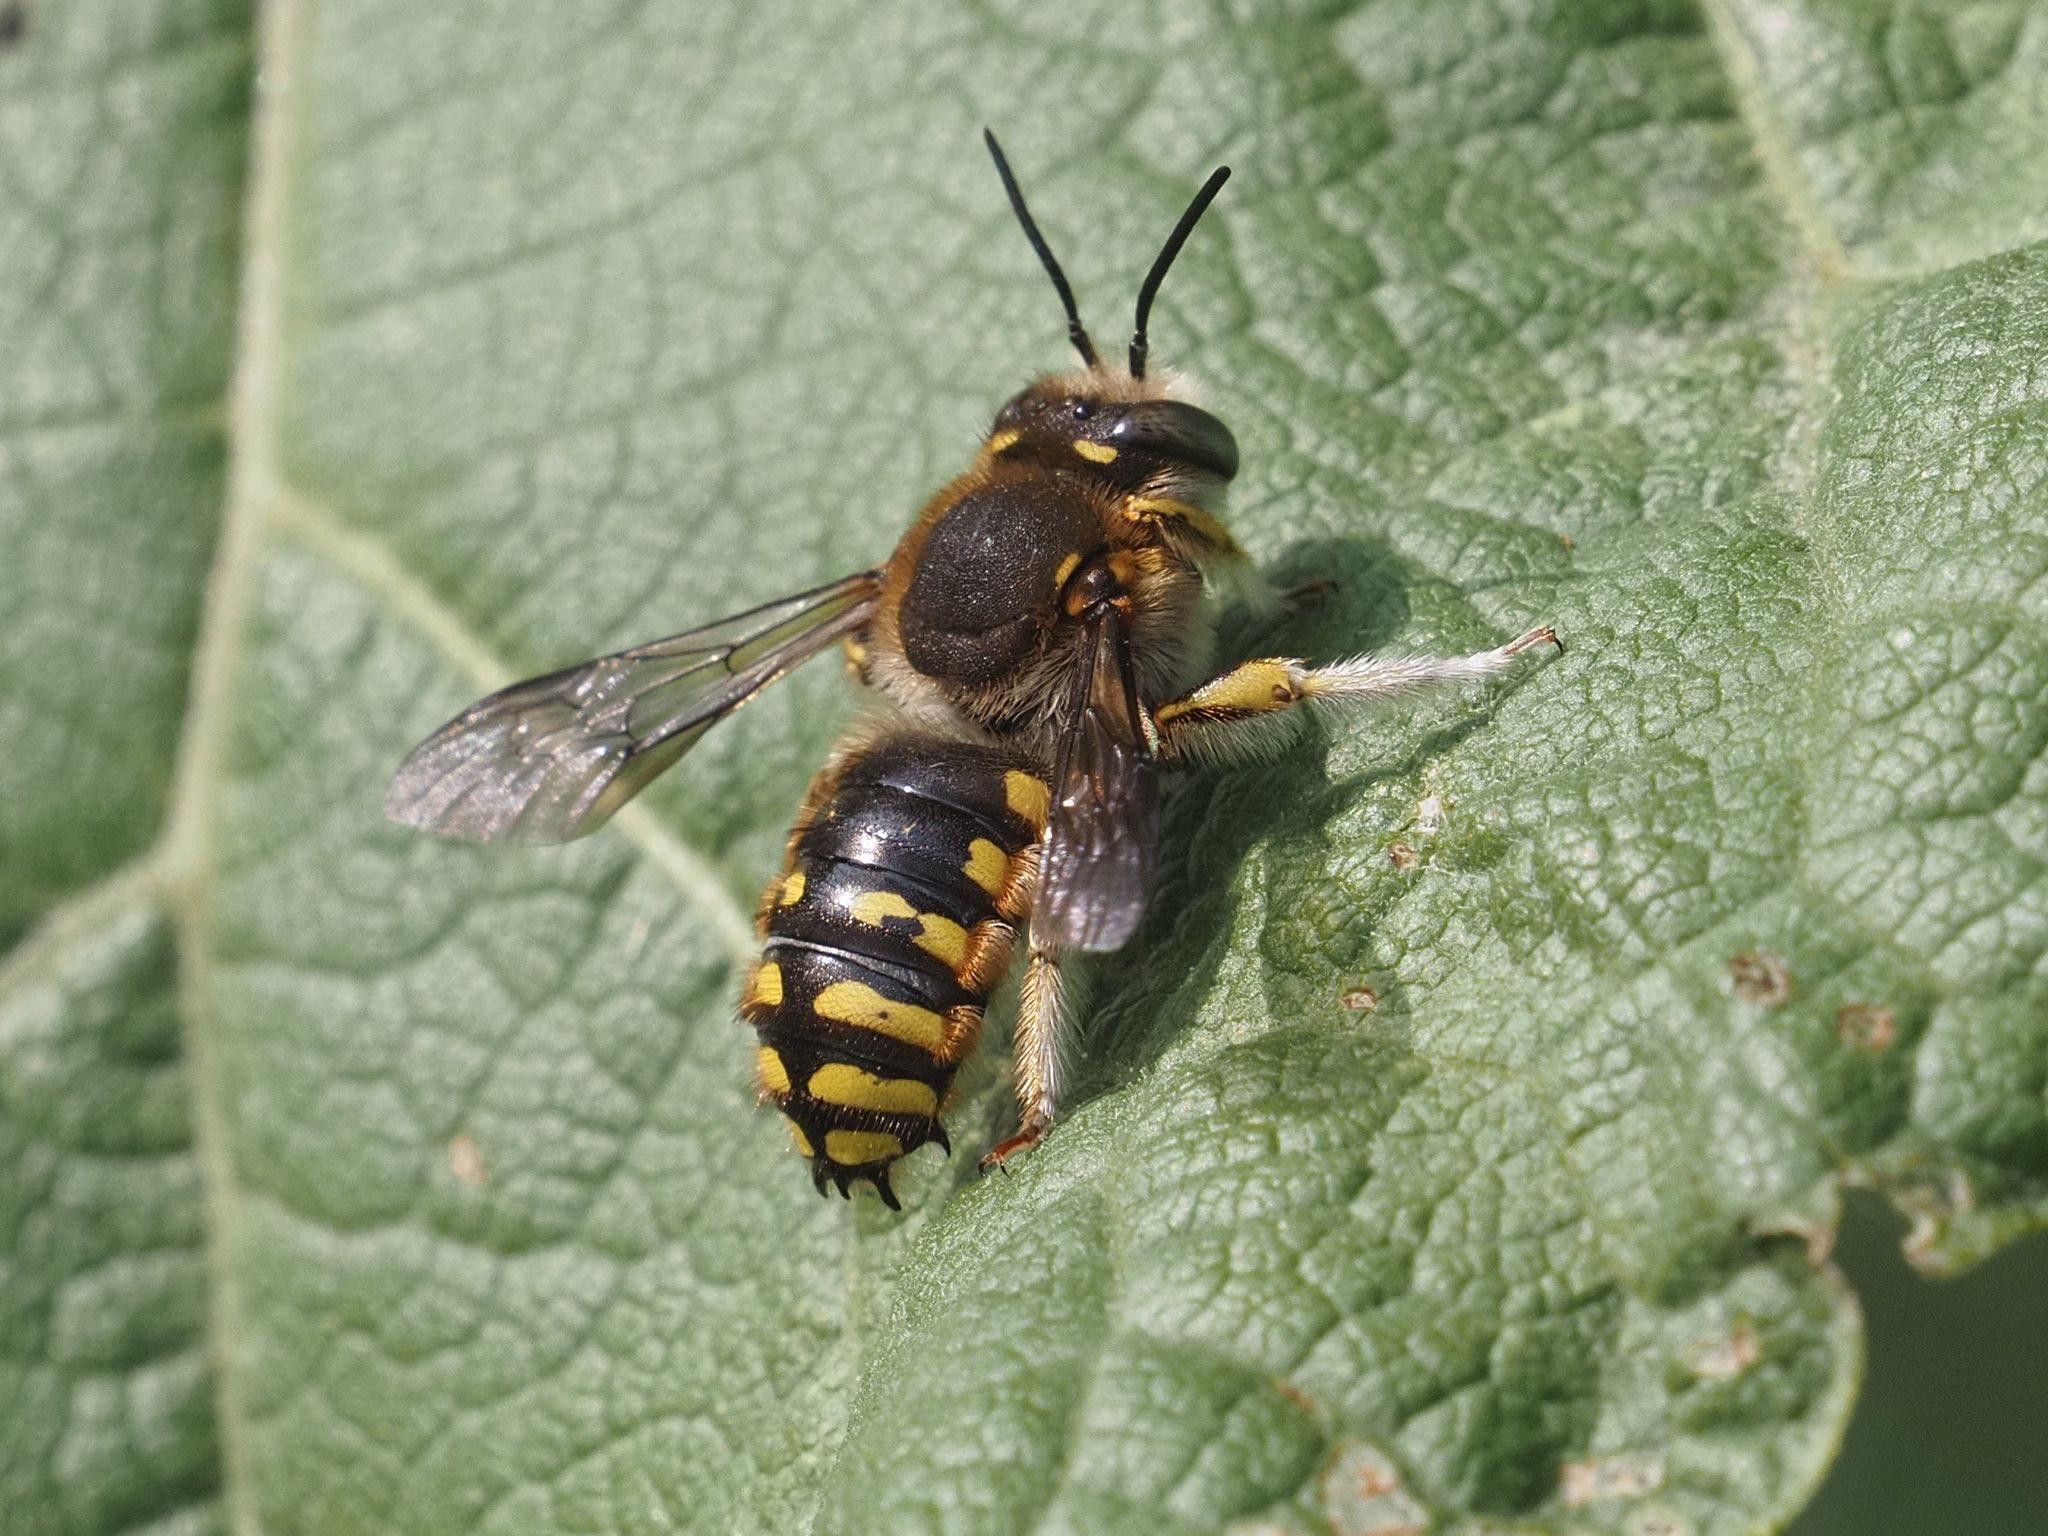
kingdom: Animalia
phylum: Arthropoda
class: Insecta
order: Hymenoptera
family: Megachilidae
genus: Anthidium
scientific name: Anthidium manicatum
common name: Wool carder bee
